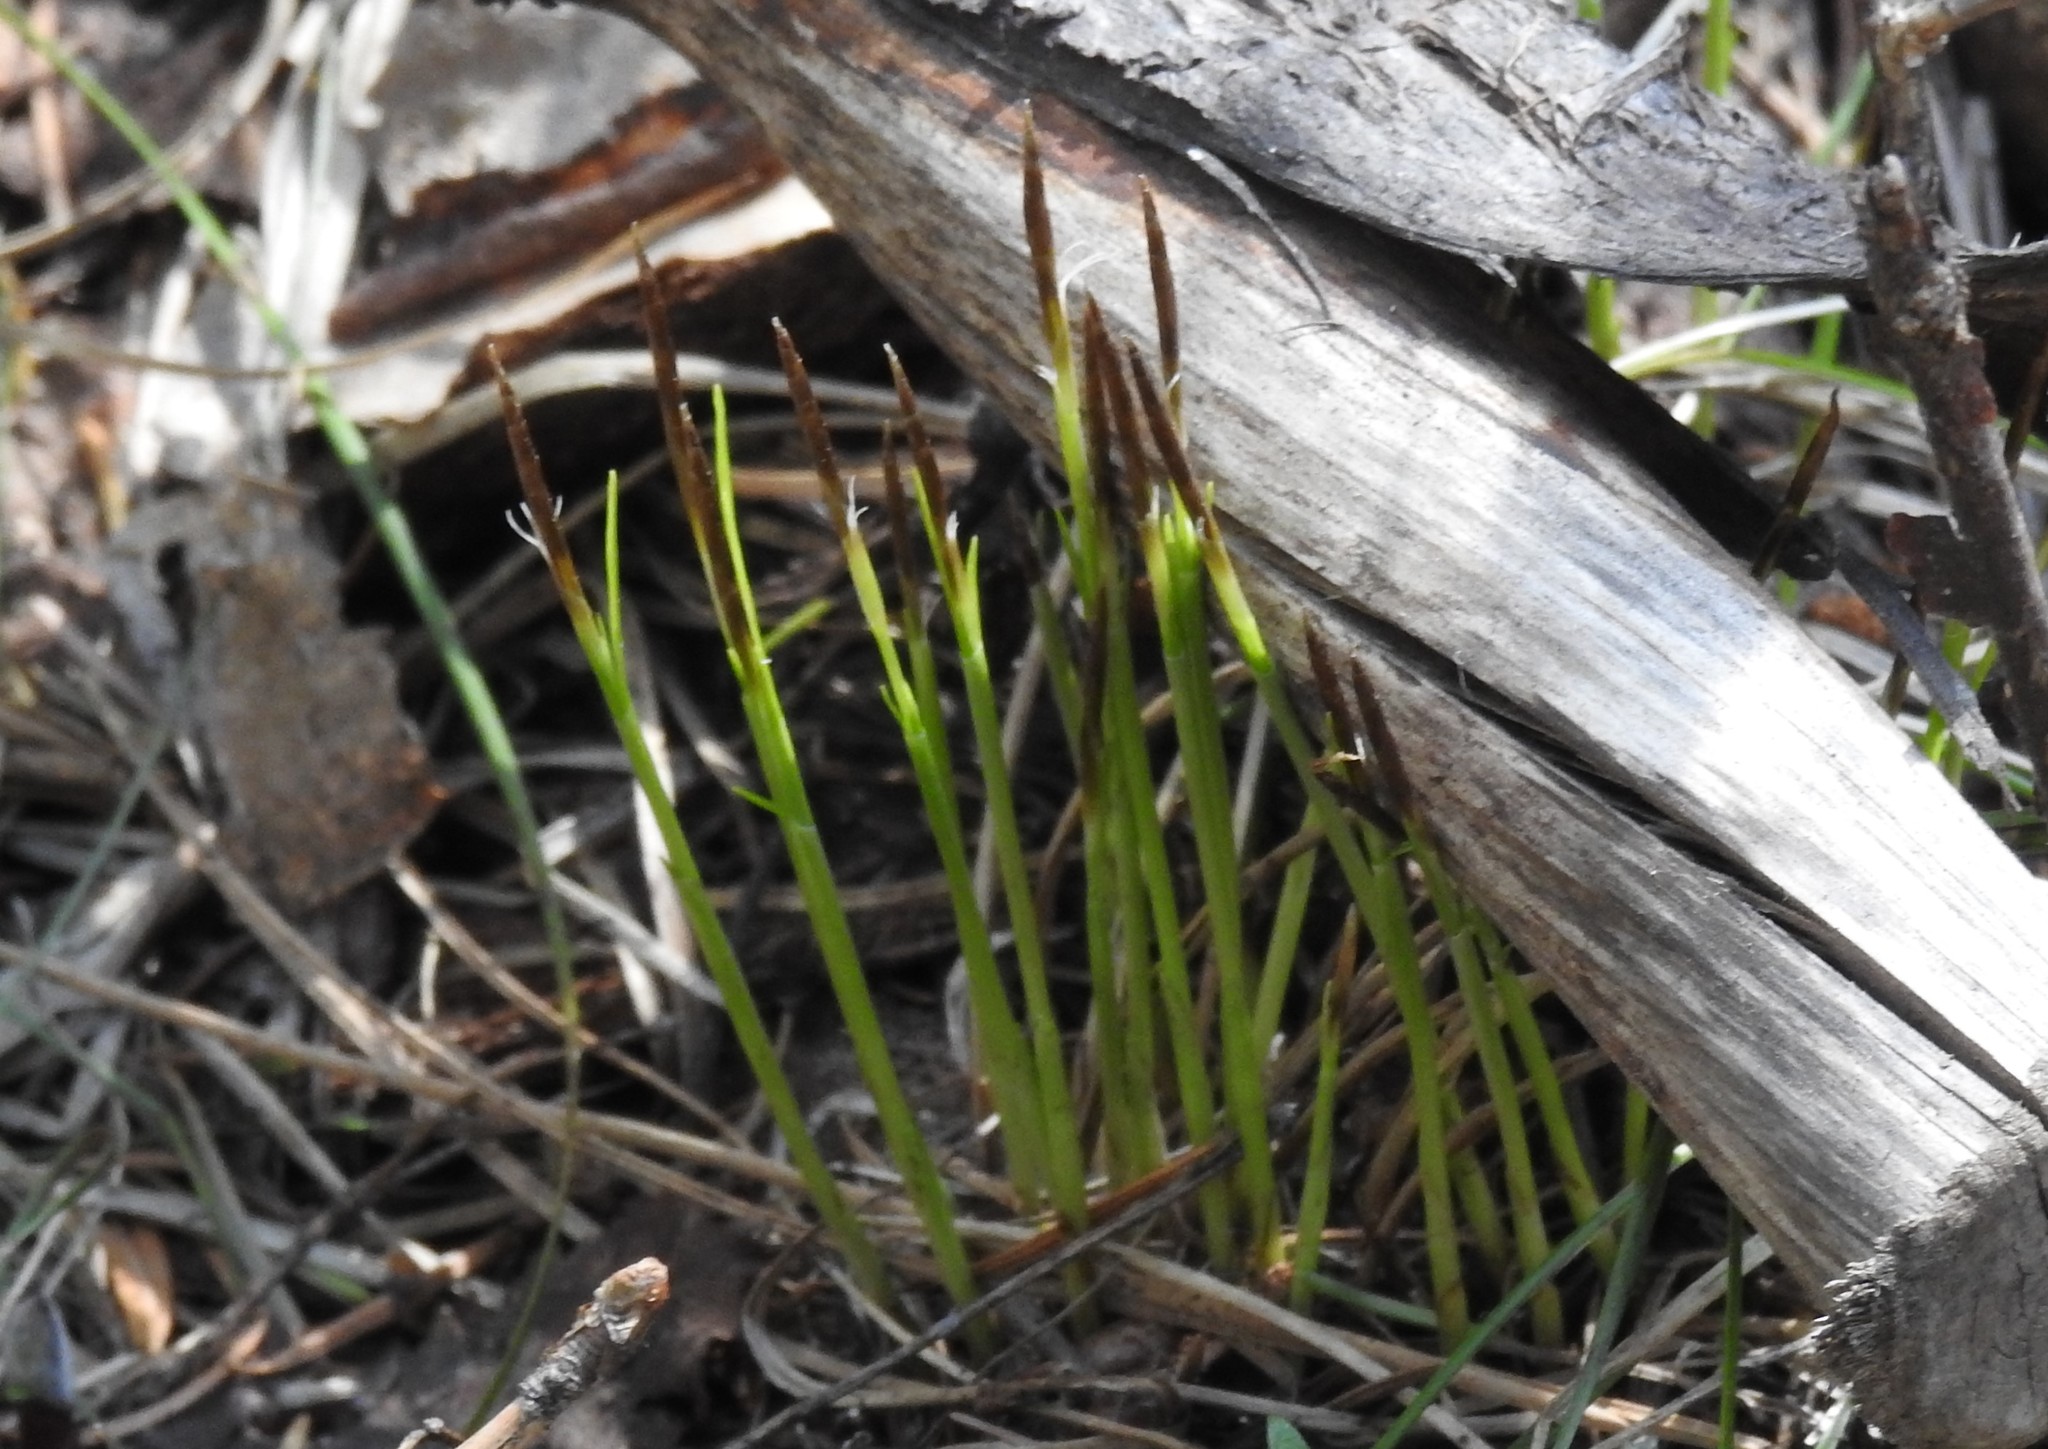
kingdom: Plantae
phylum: Tracheophyta
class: Liliopsida
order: Poales
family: Cyperaceae
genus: Carex
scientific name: Carex geyeri
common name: Elk sedge
